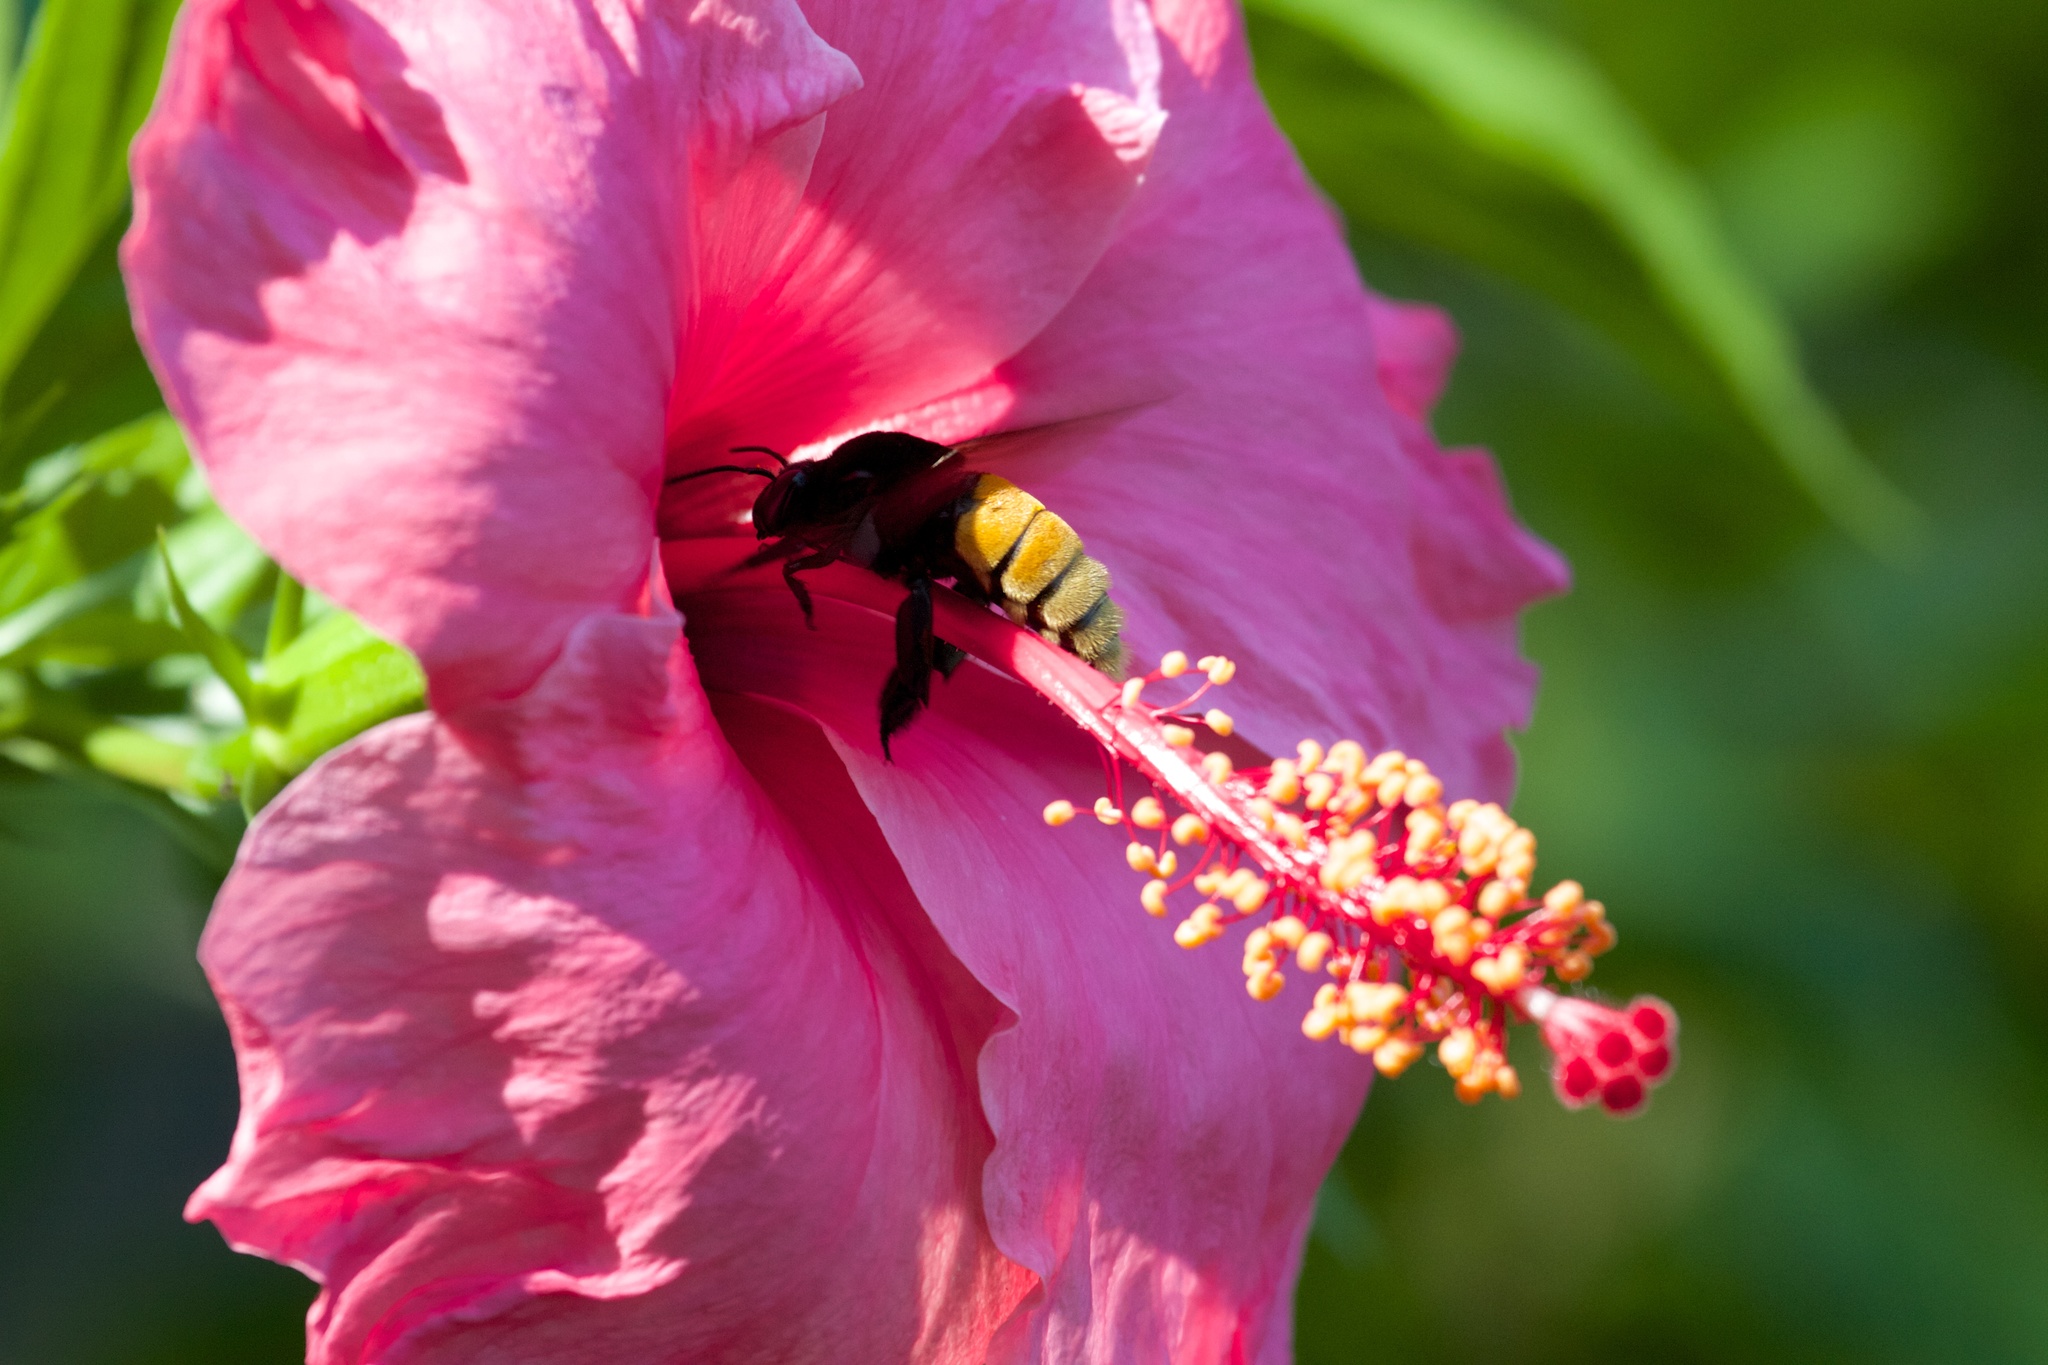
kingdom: Animalia
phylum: Arthropoda
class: Insecta
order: Hymenoptera
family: Apidae
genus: Eulaema
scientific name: Eulaema polychroma
